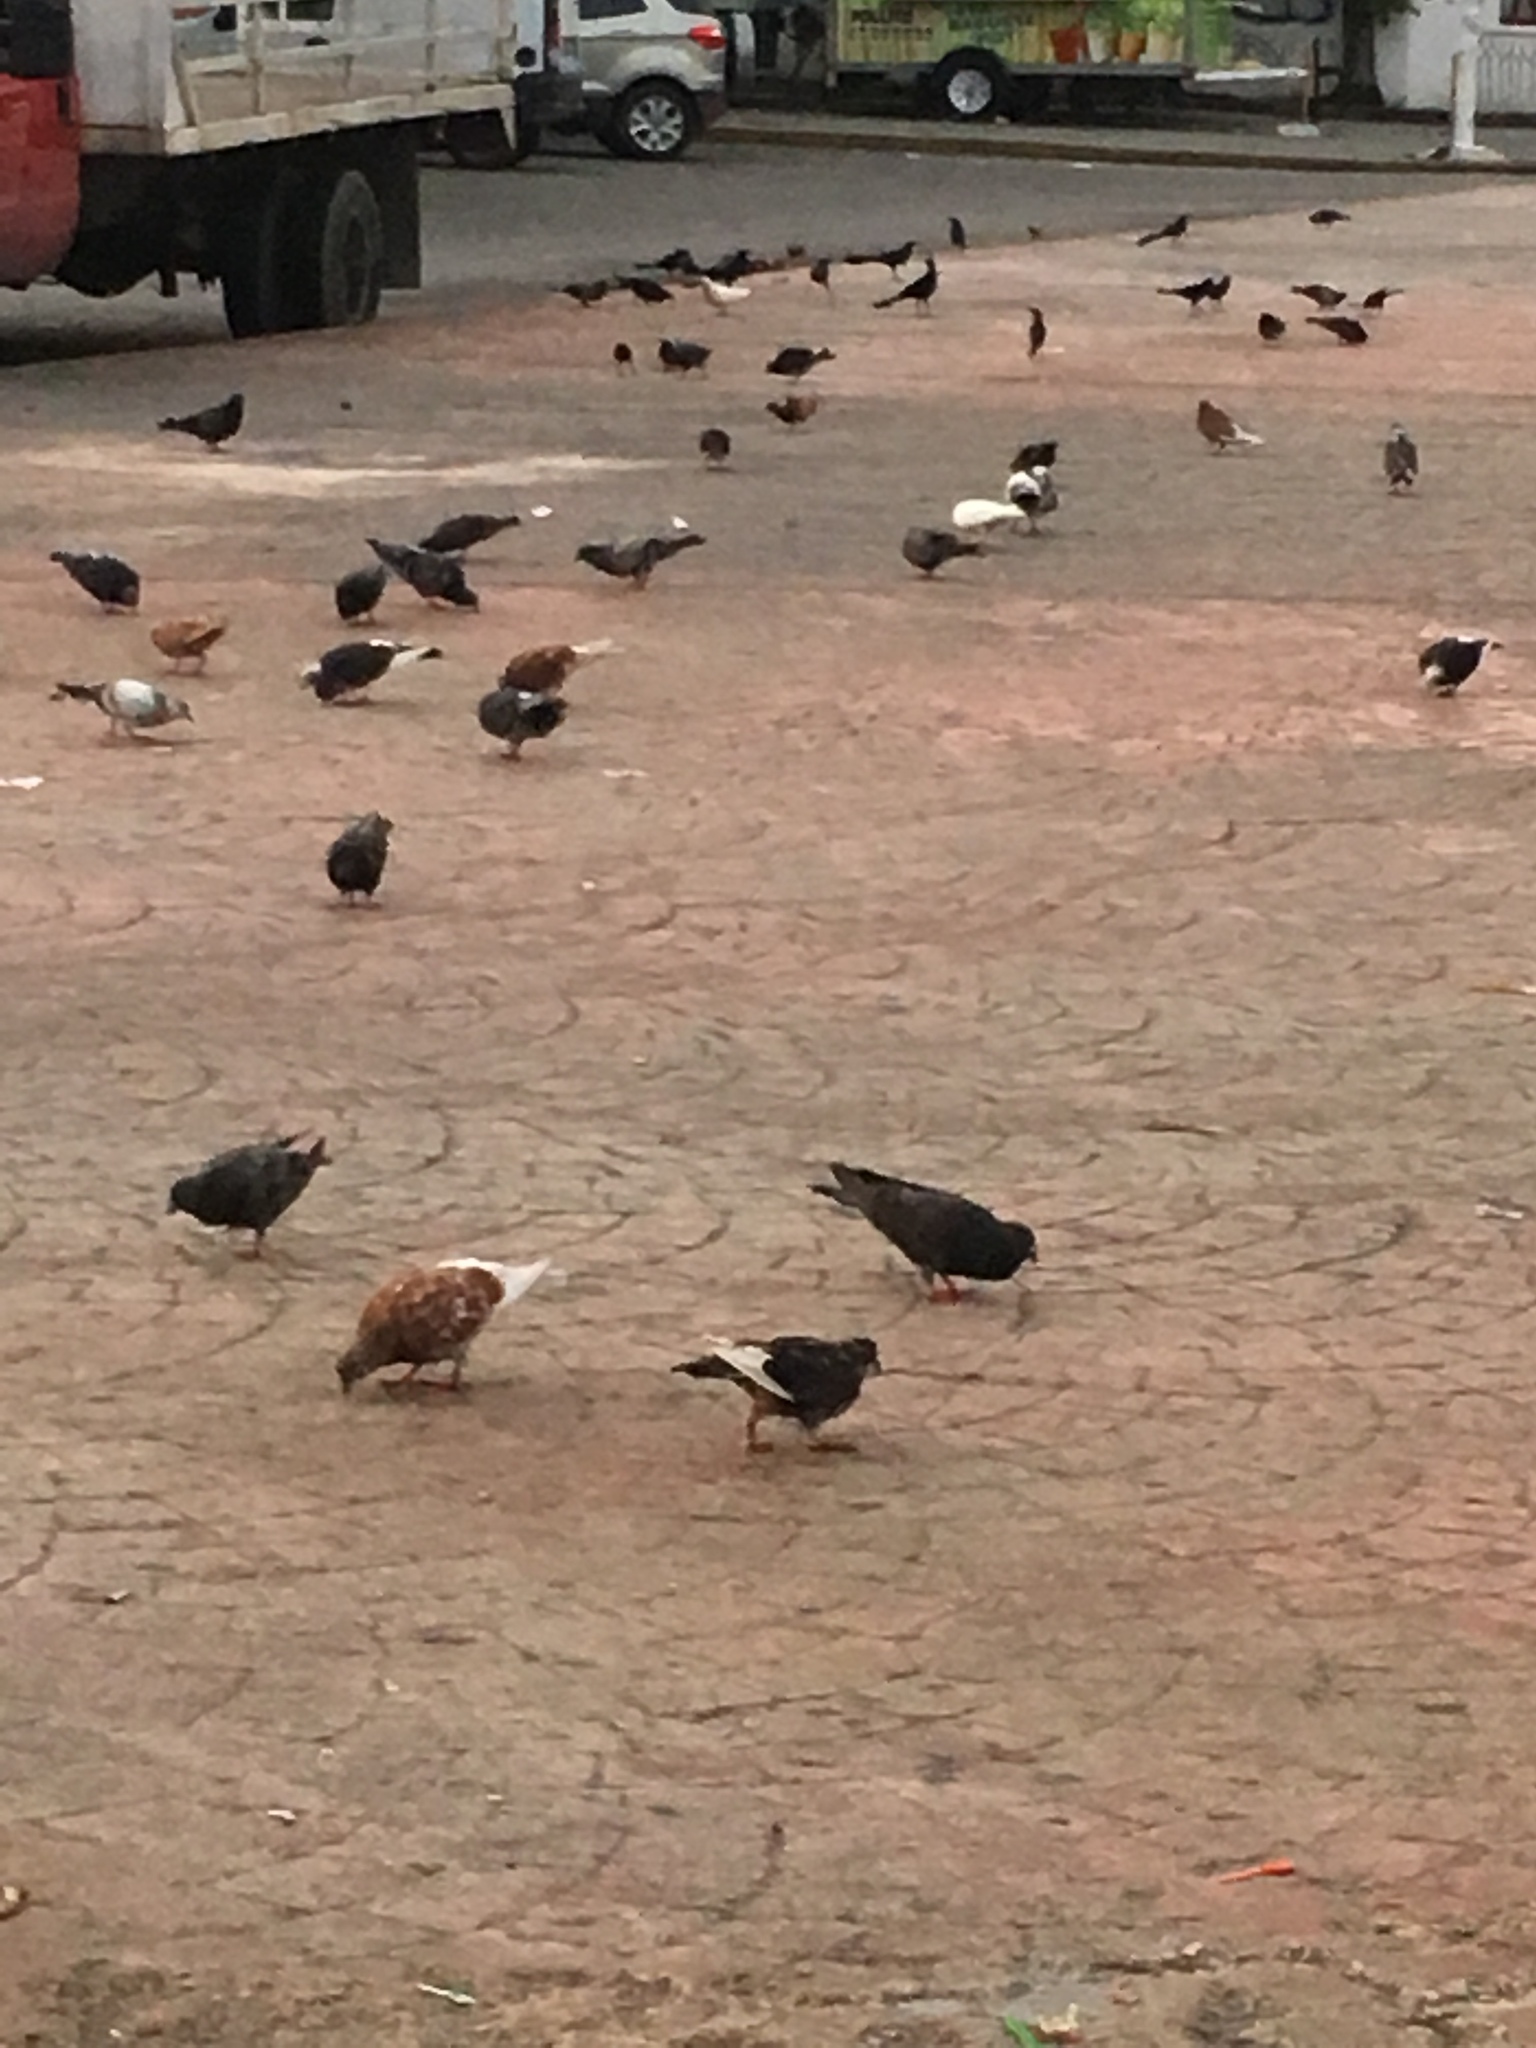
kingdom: Animalia
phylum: Chordata
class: Aves
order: Columbiformes
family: Columbidae
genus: Columba
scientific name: Columba livia
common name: Rock pigeon
